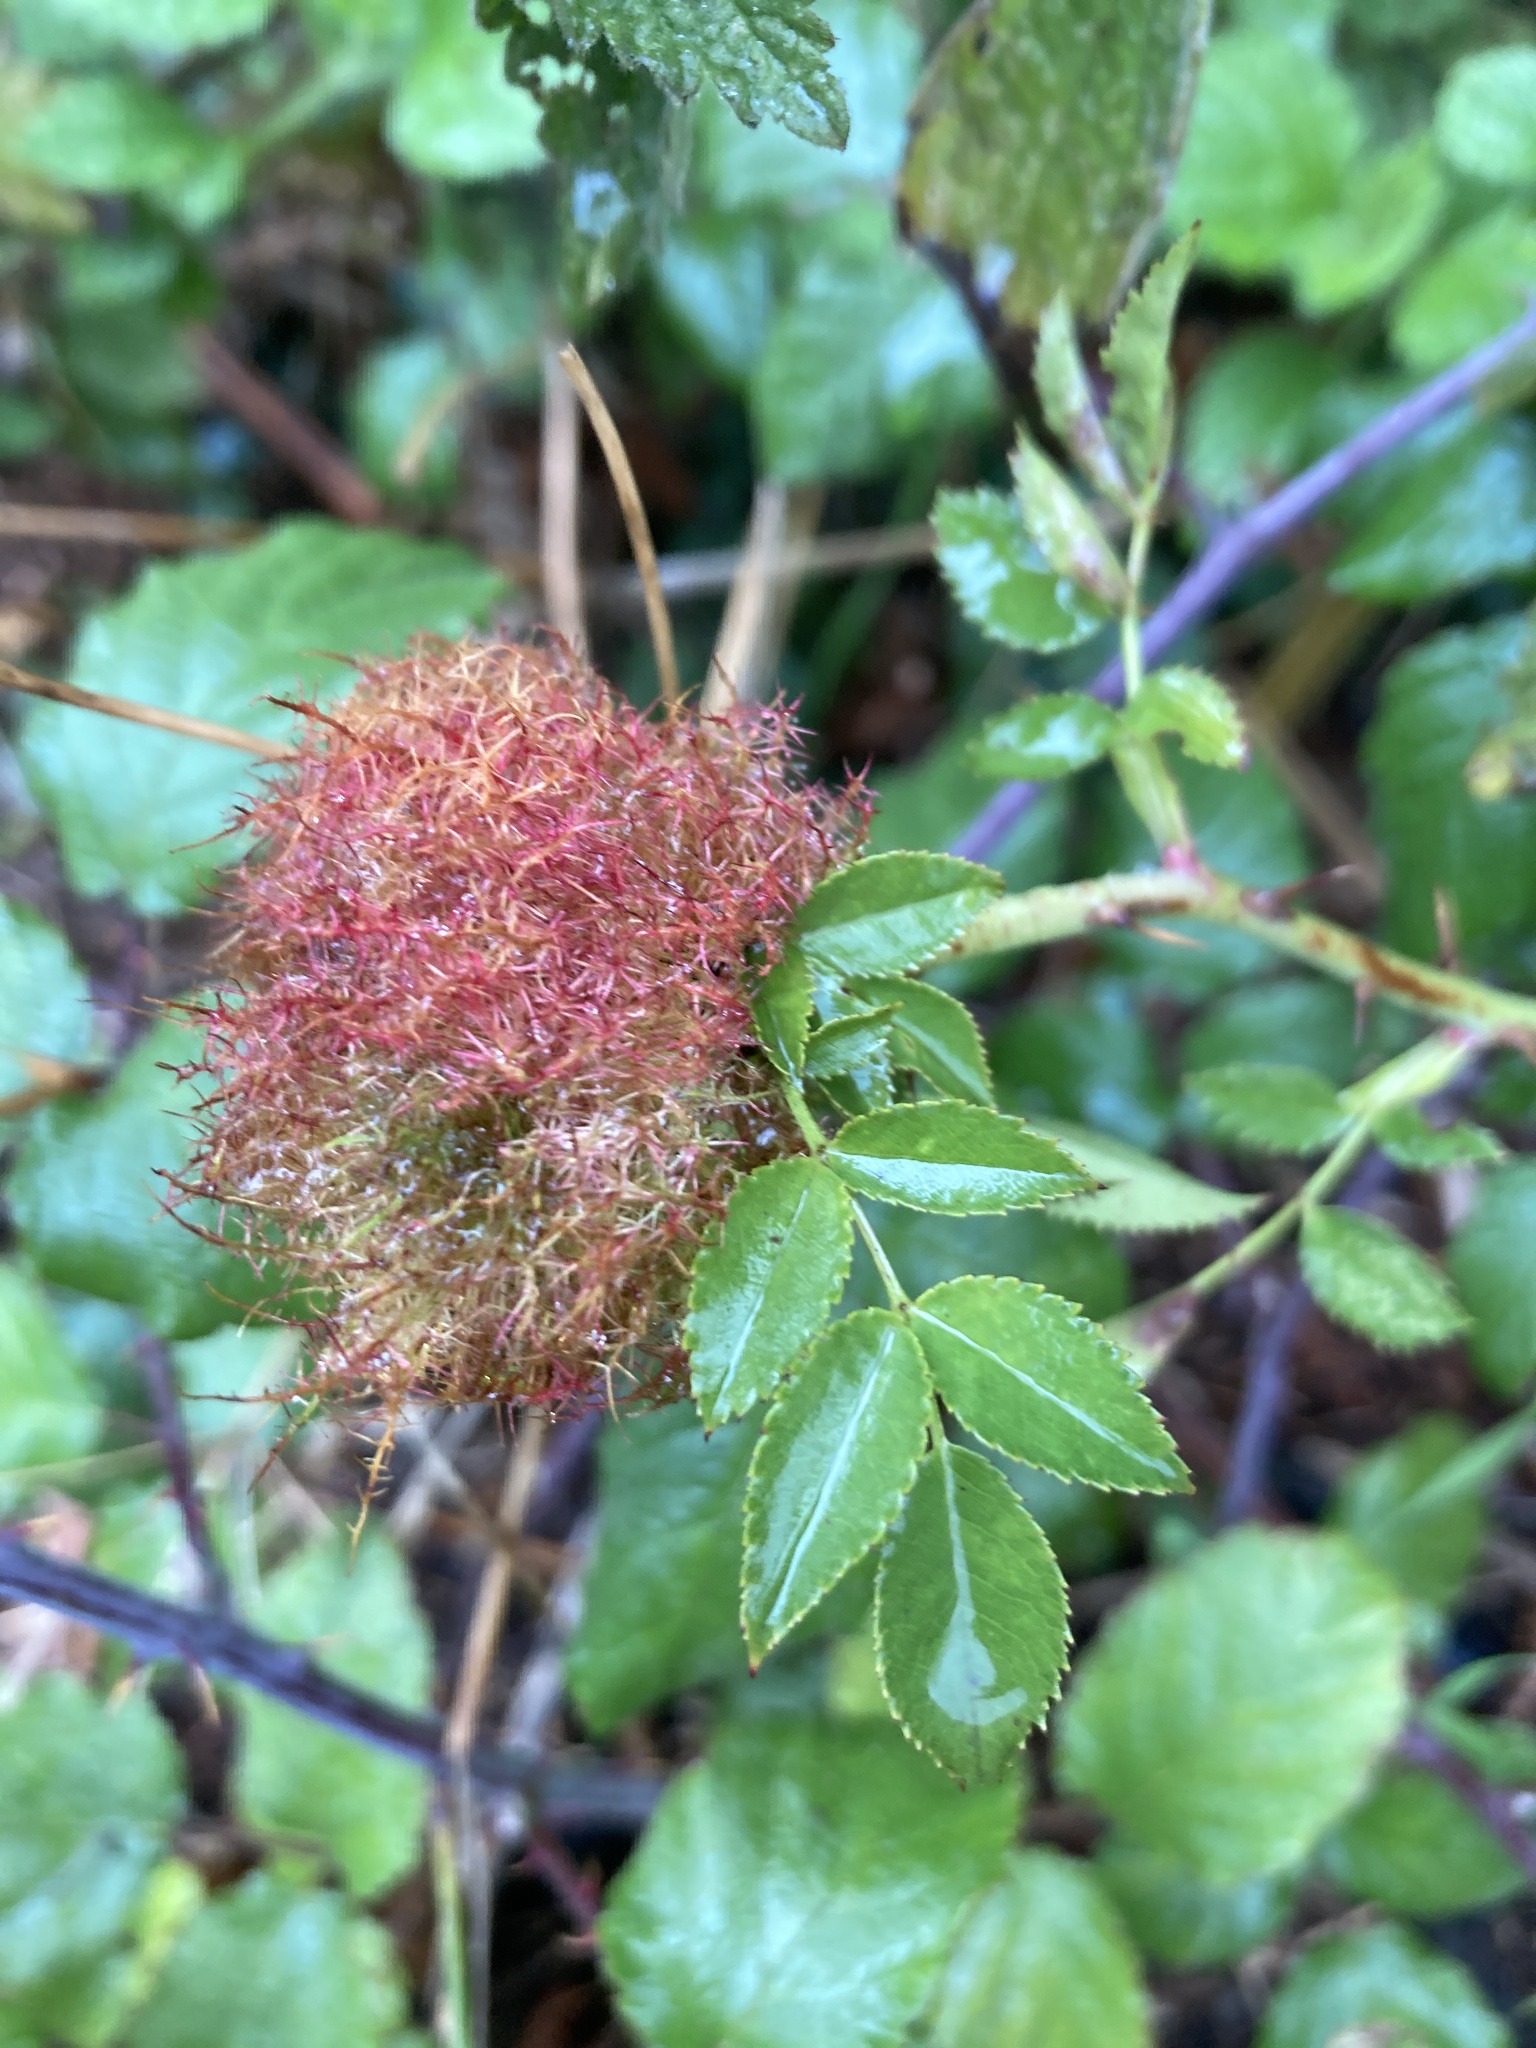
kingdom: Animalia
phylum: Arthropoda
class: Insecta
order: Hymenoptera
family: Cynipidae
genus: Diplolepis
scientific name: Diplolepis rosae
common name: Bedeguar gall
